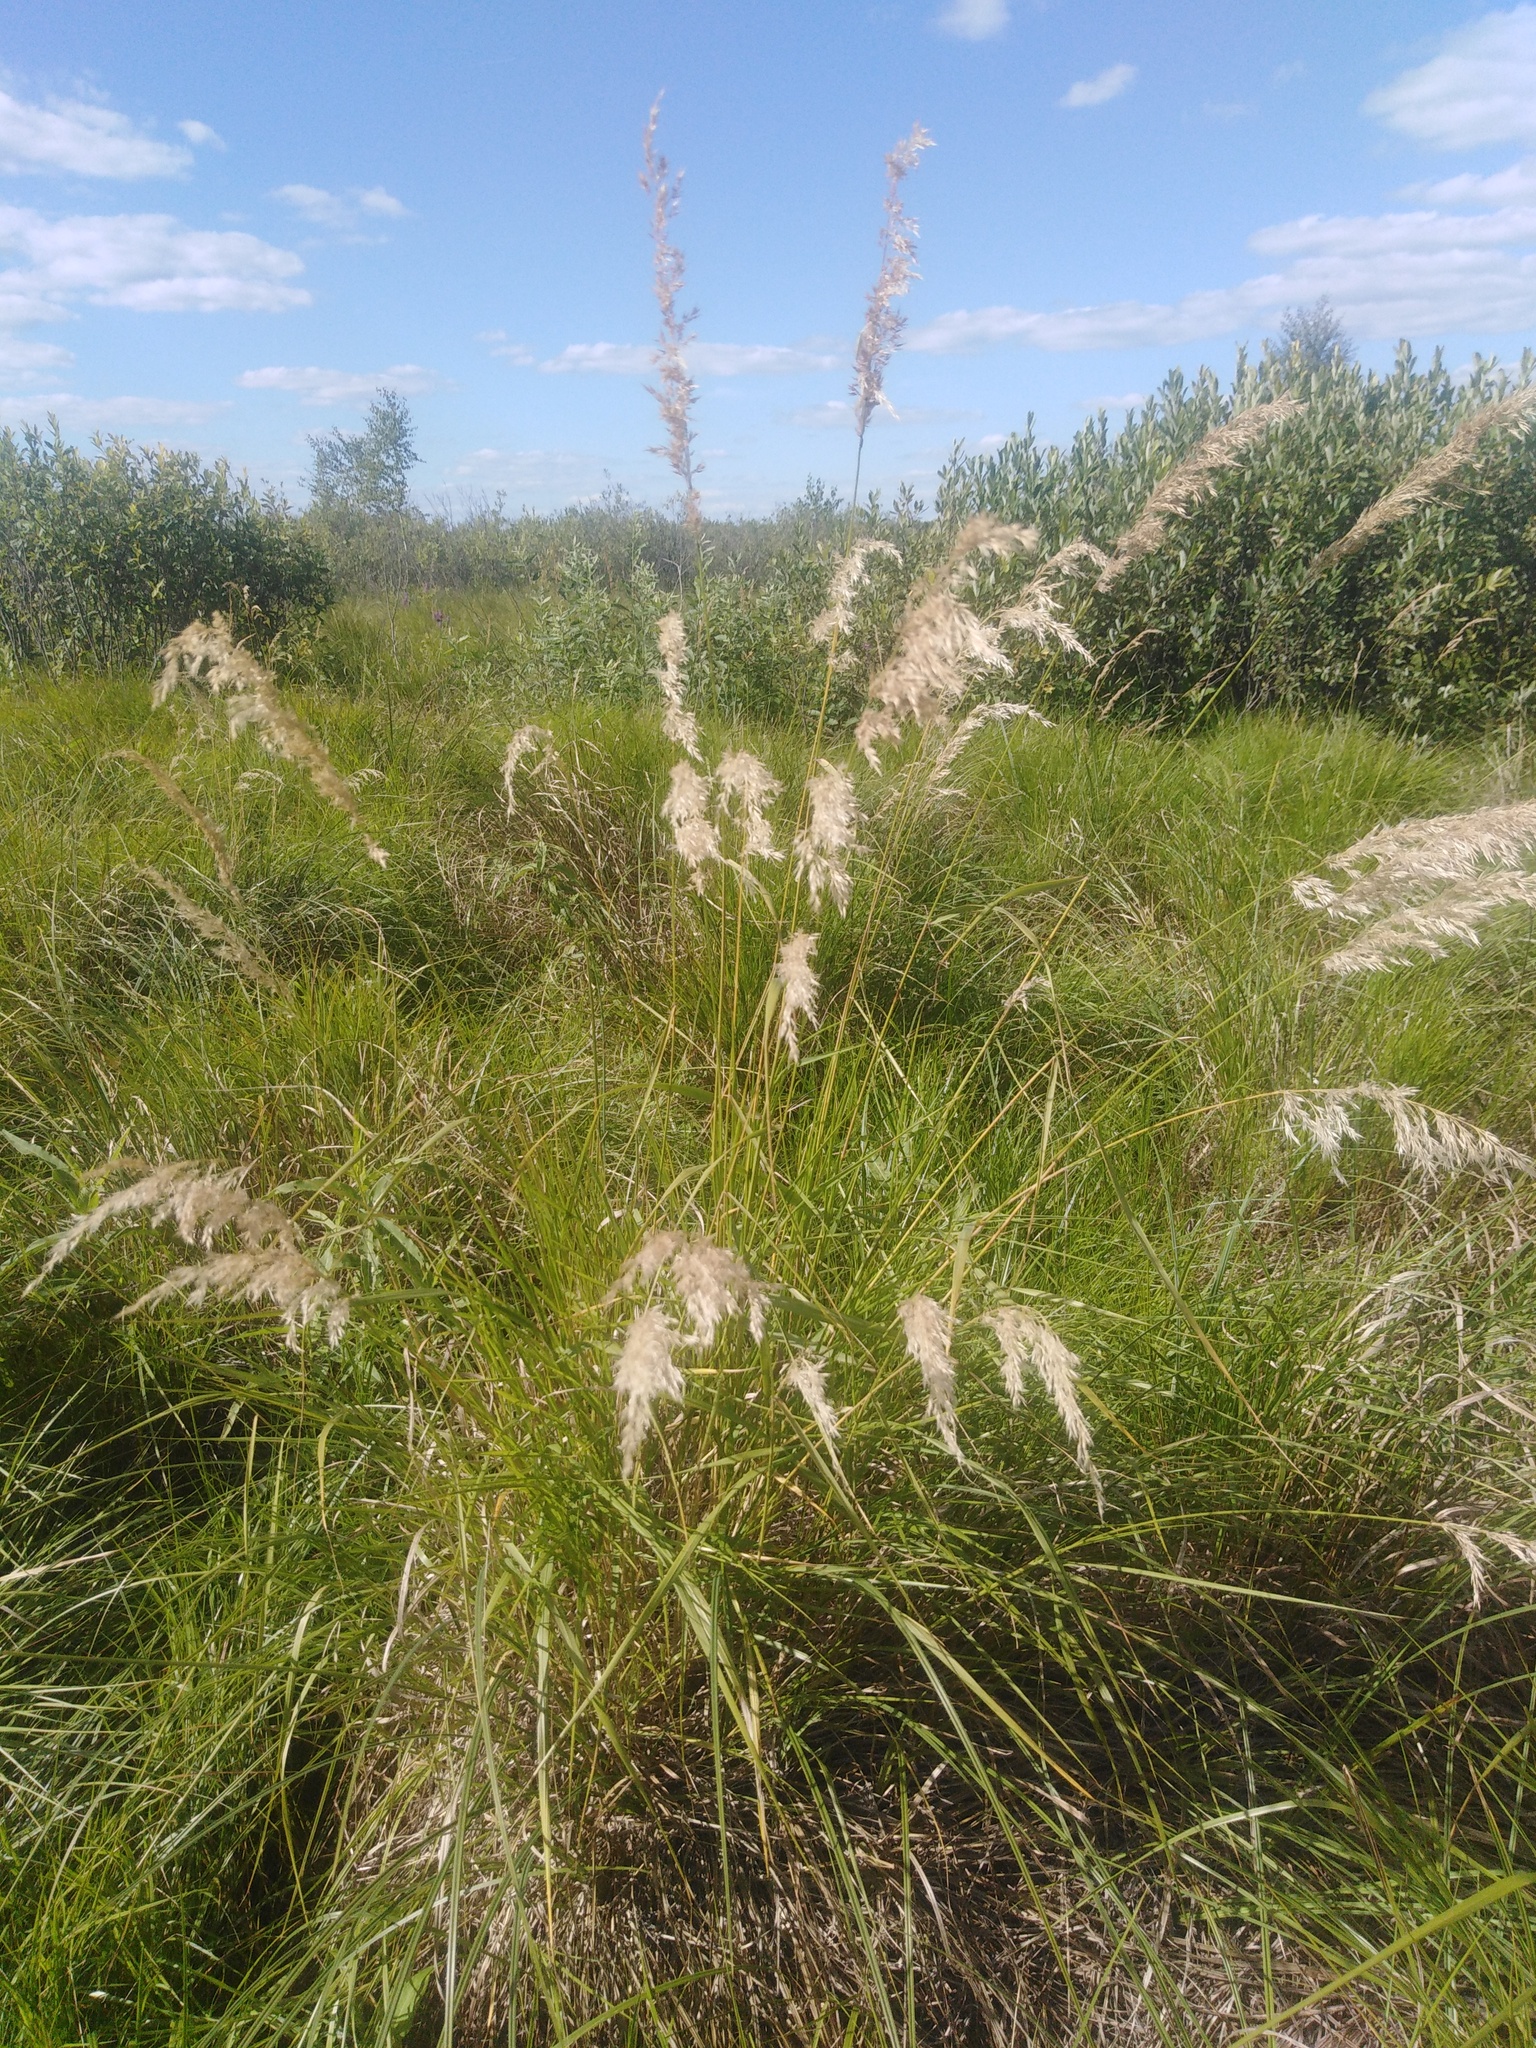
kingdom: Plantae
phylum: Tracheophyta
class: Liliopsida
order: Poales
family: Poaceae
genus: Calamagrostis
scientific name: Calamagrostis canescens
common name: Purple small-reed
